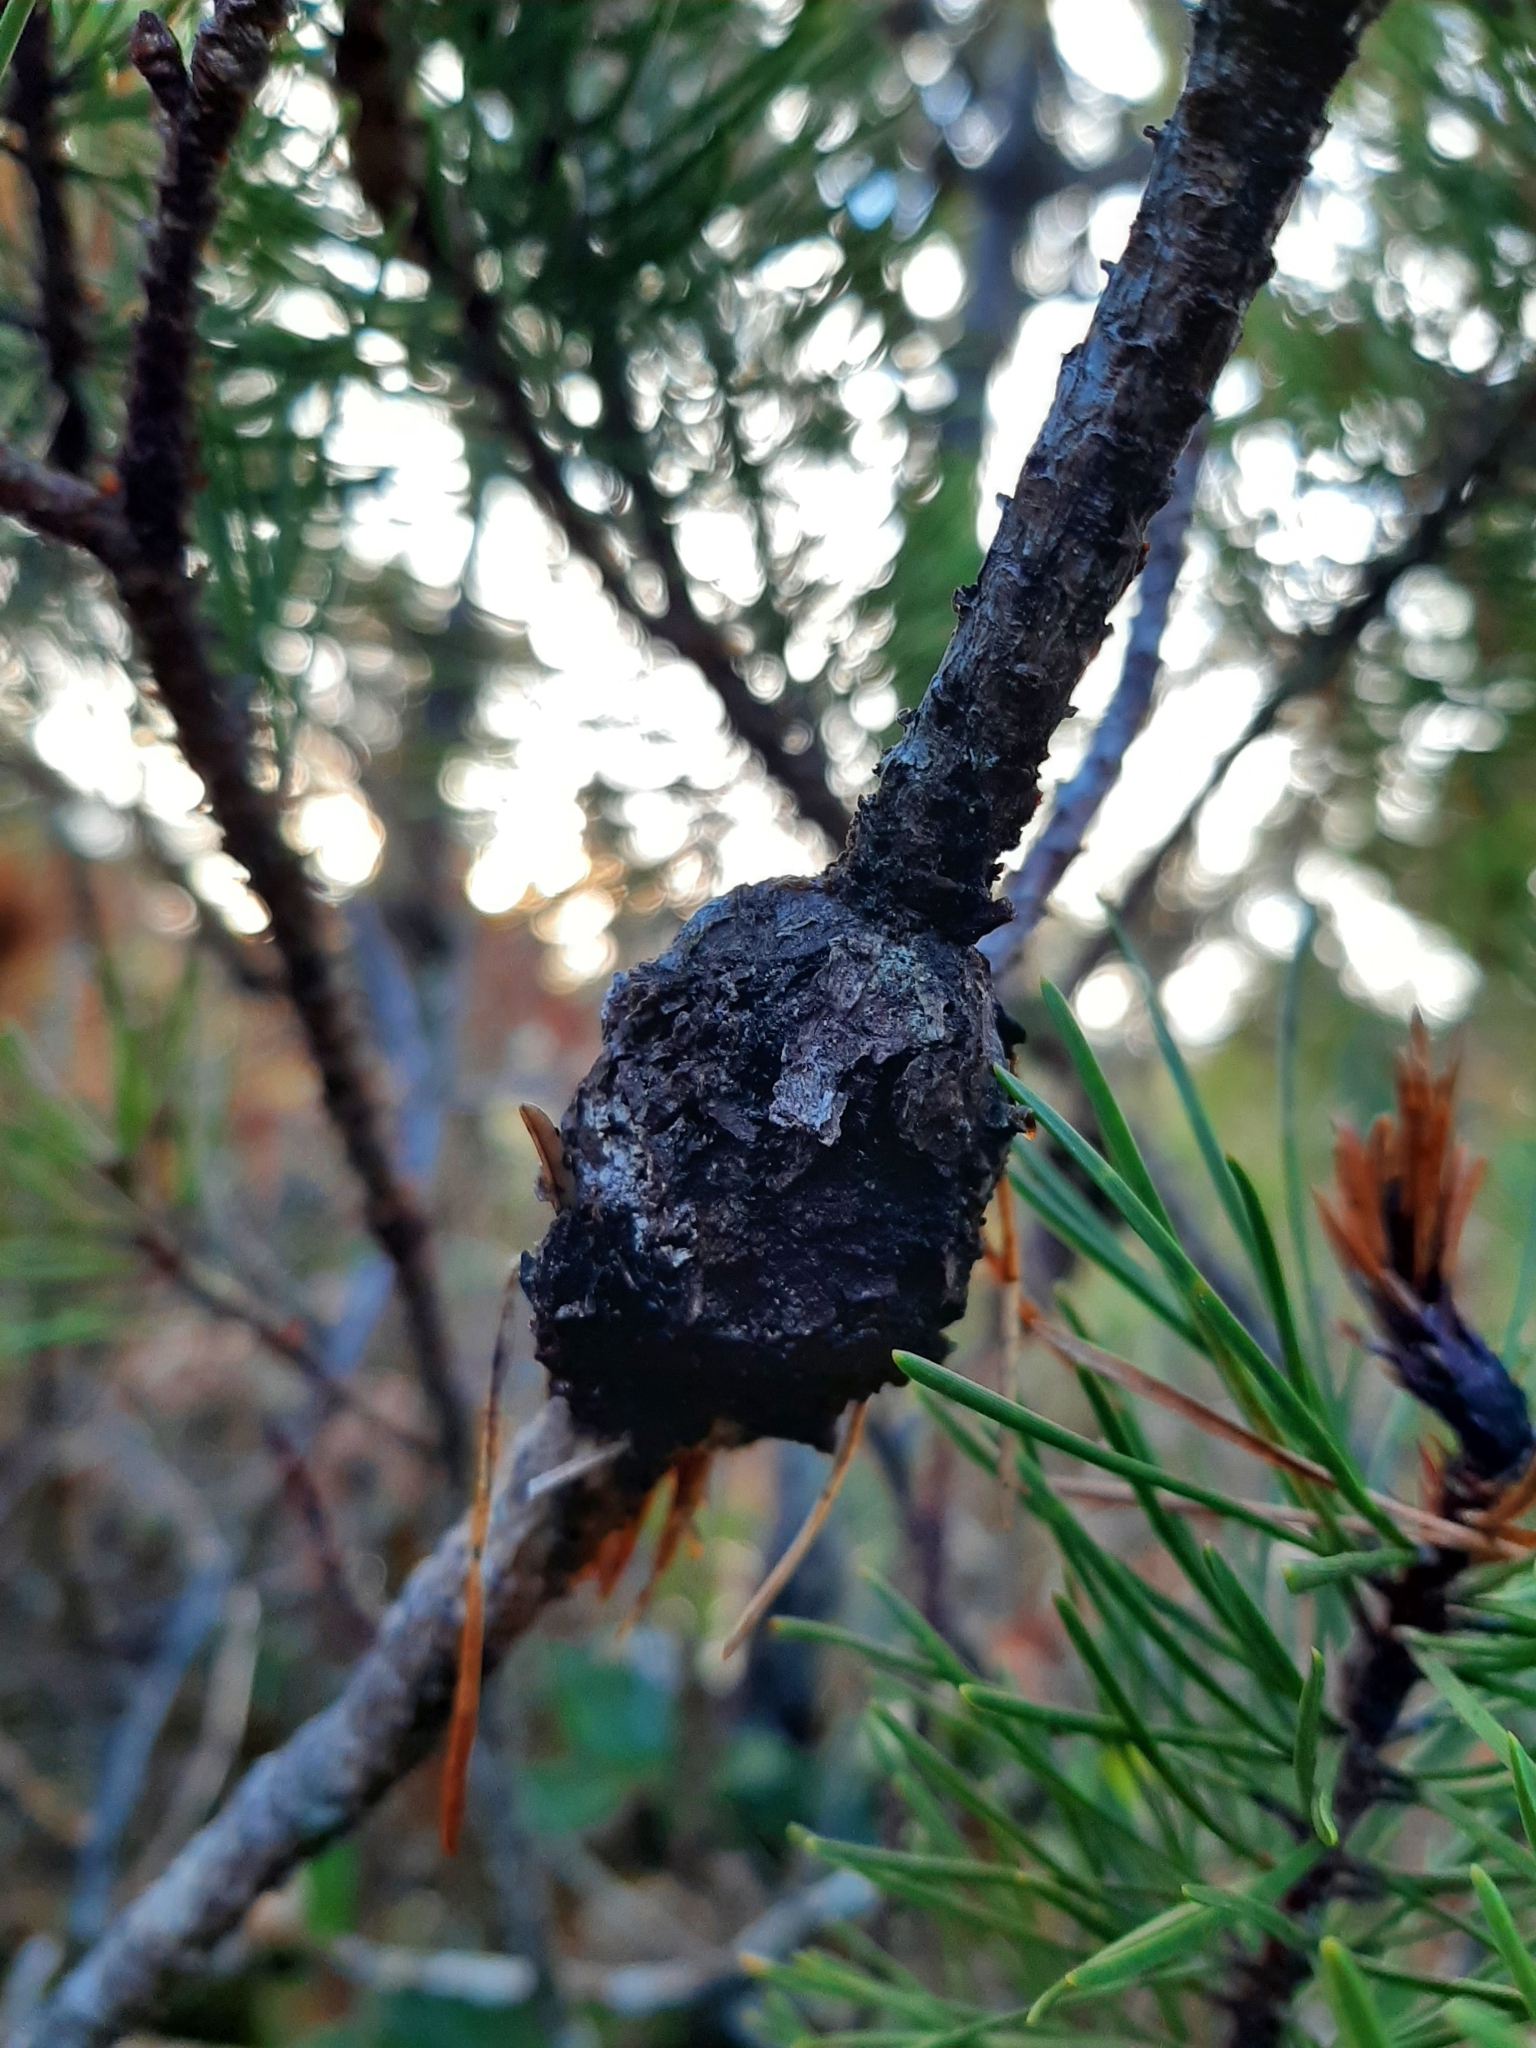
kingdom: Fungi
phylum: Basidiomycota
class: Pucciniomycetes
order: Pucciniales
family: Cronartiaceae
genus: Cronartium
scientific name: Cronartium harknessii
